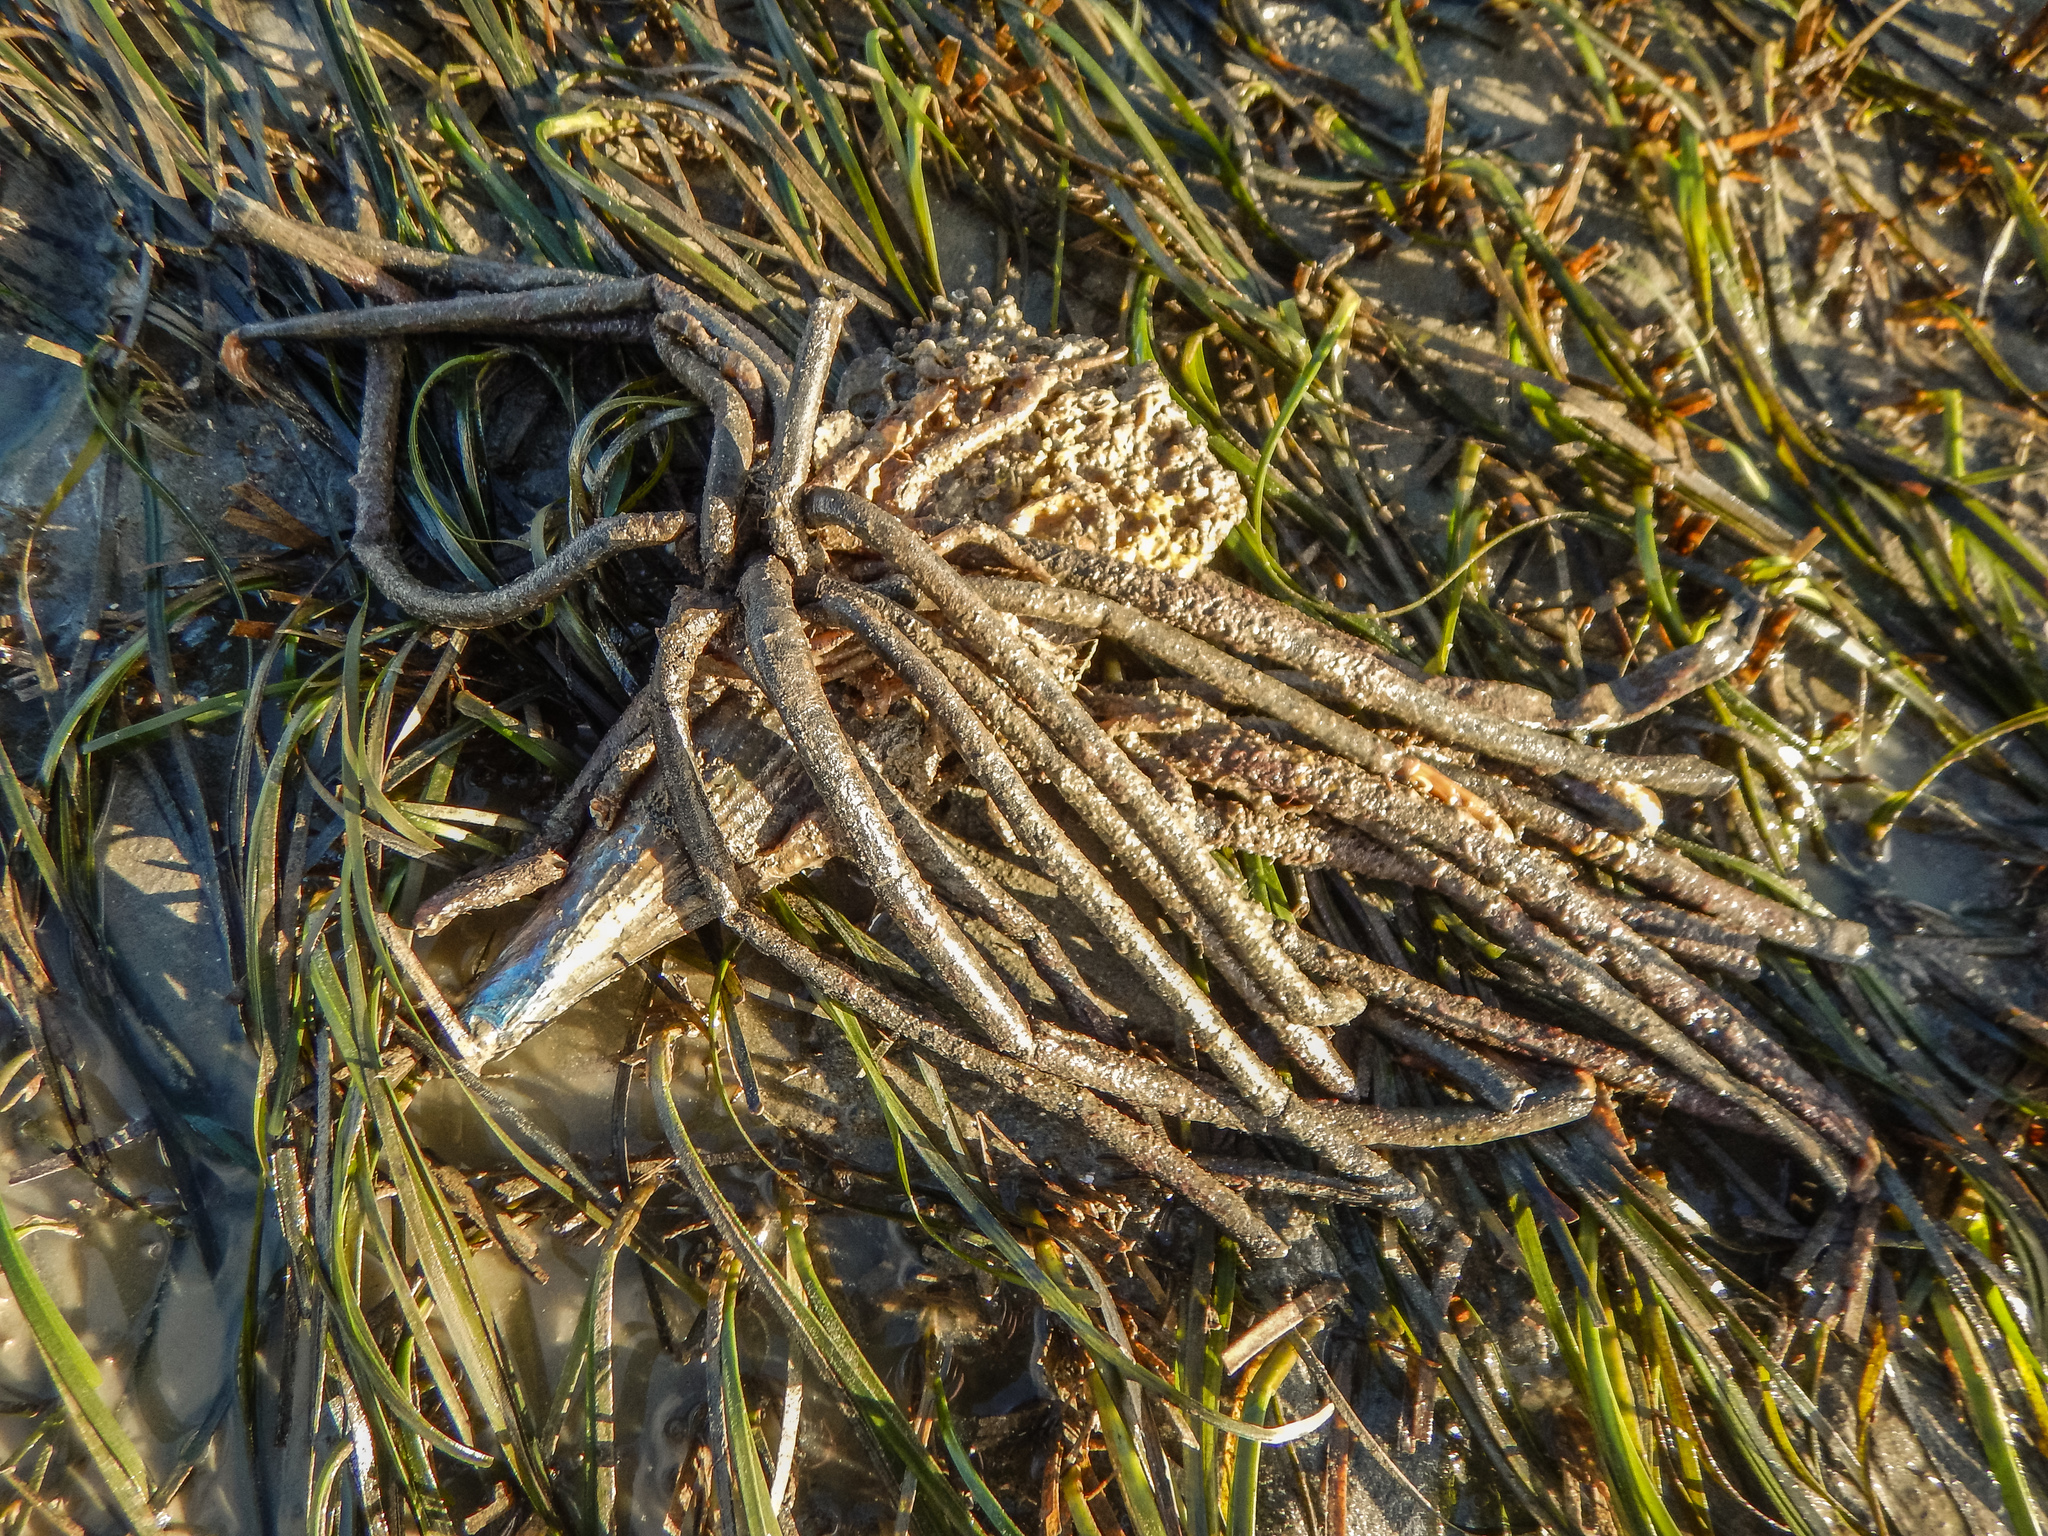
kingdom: Animalia
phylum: Annelida
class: Polychaeta
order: Sabellida
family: Sabellidae
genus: Sabella
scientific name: Sabella spallanzanii
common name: Feather duster worm
